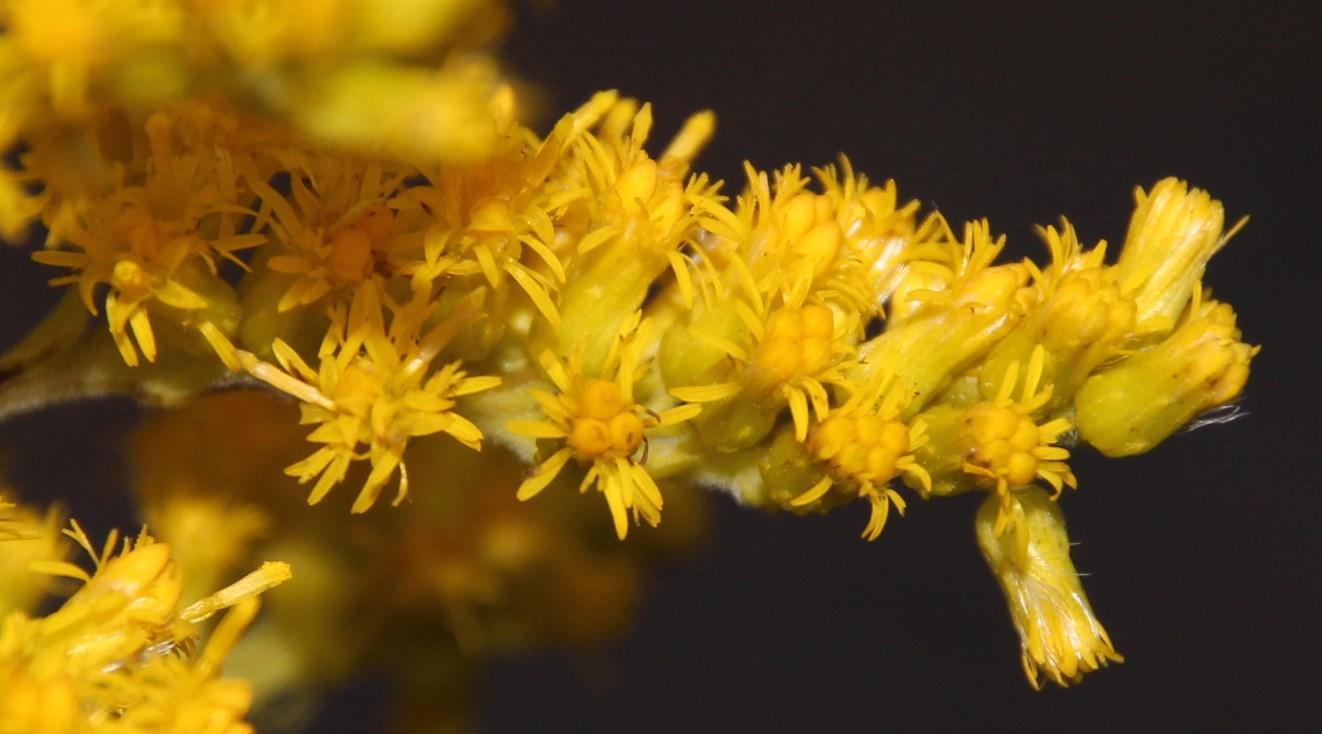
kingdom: Plantae
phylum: Tracheophyta
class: Magnoliopsida
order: Asterales
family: Asteraceae
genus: Solidago
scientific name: Solidago altissima
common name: Late goldenrod
